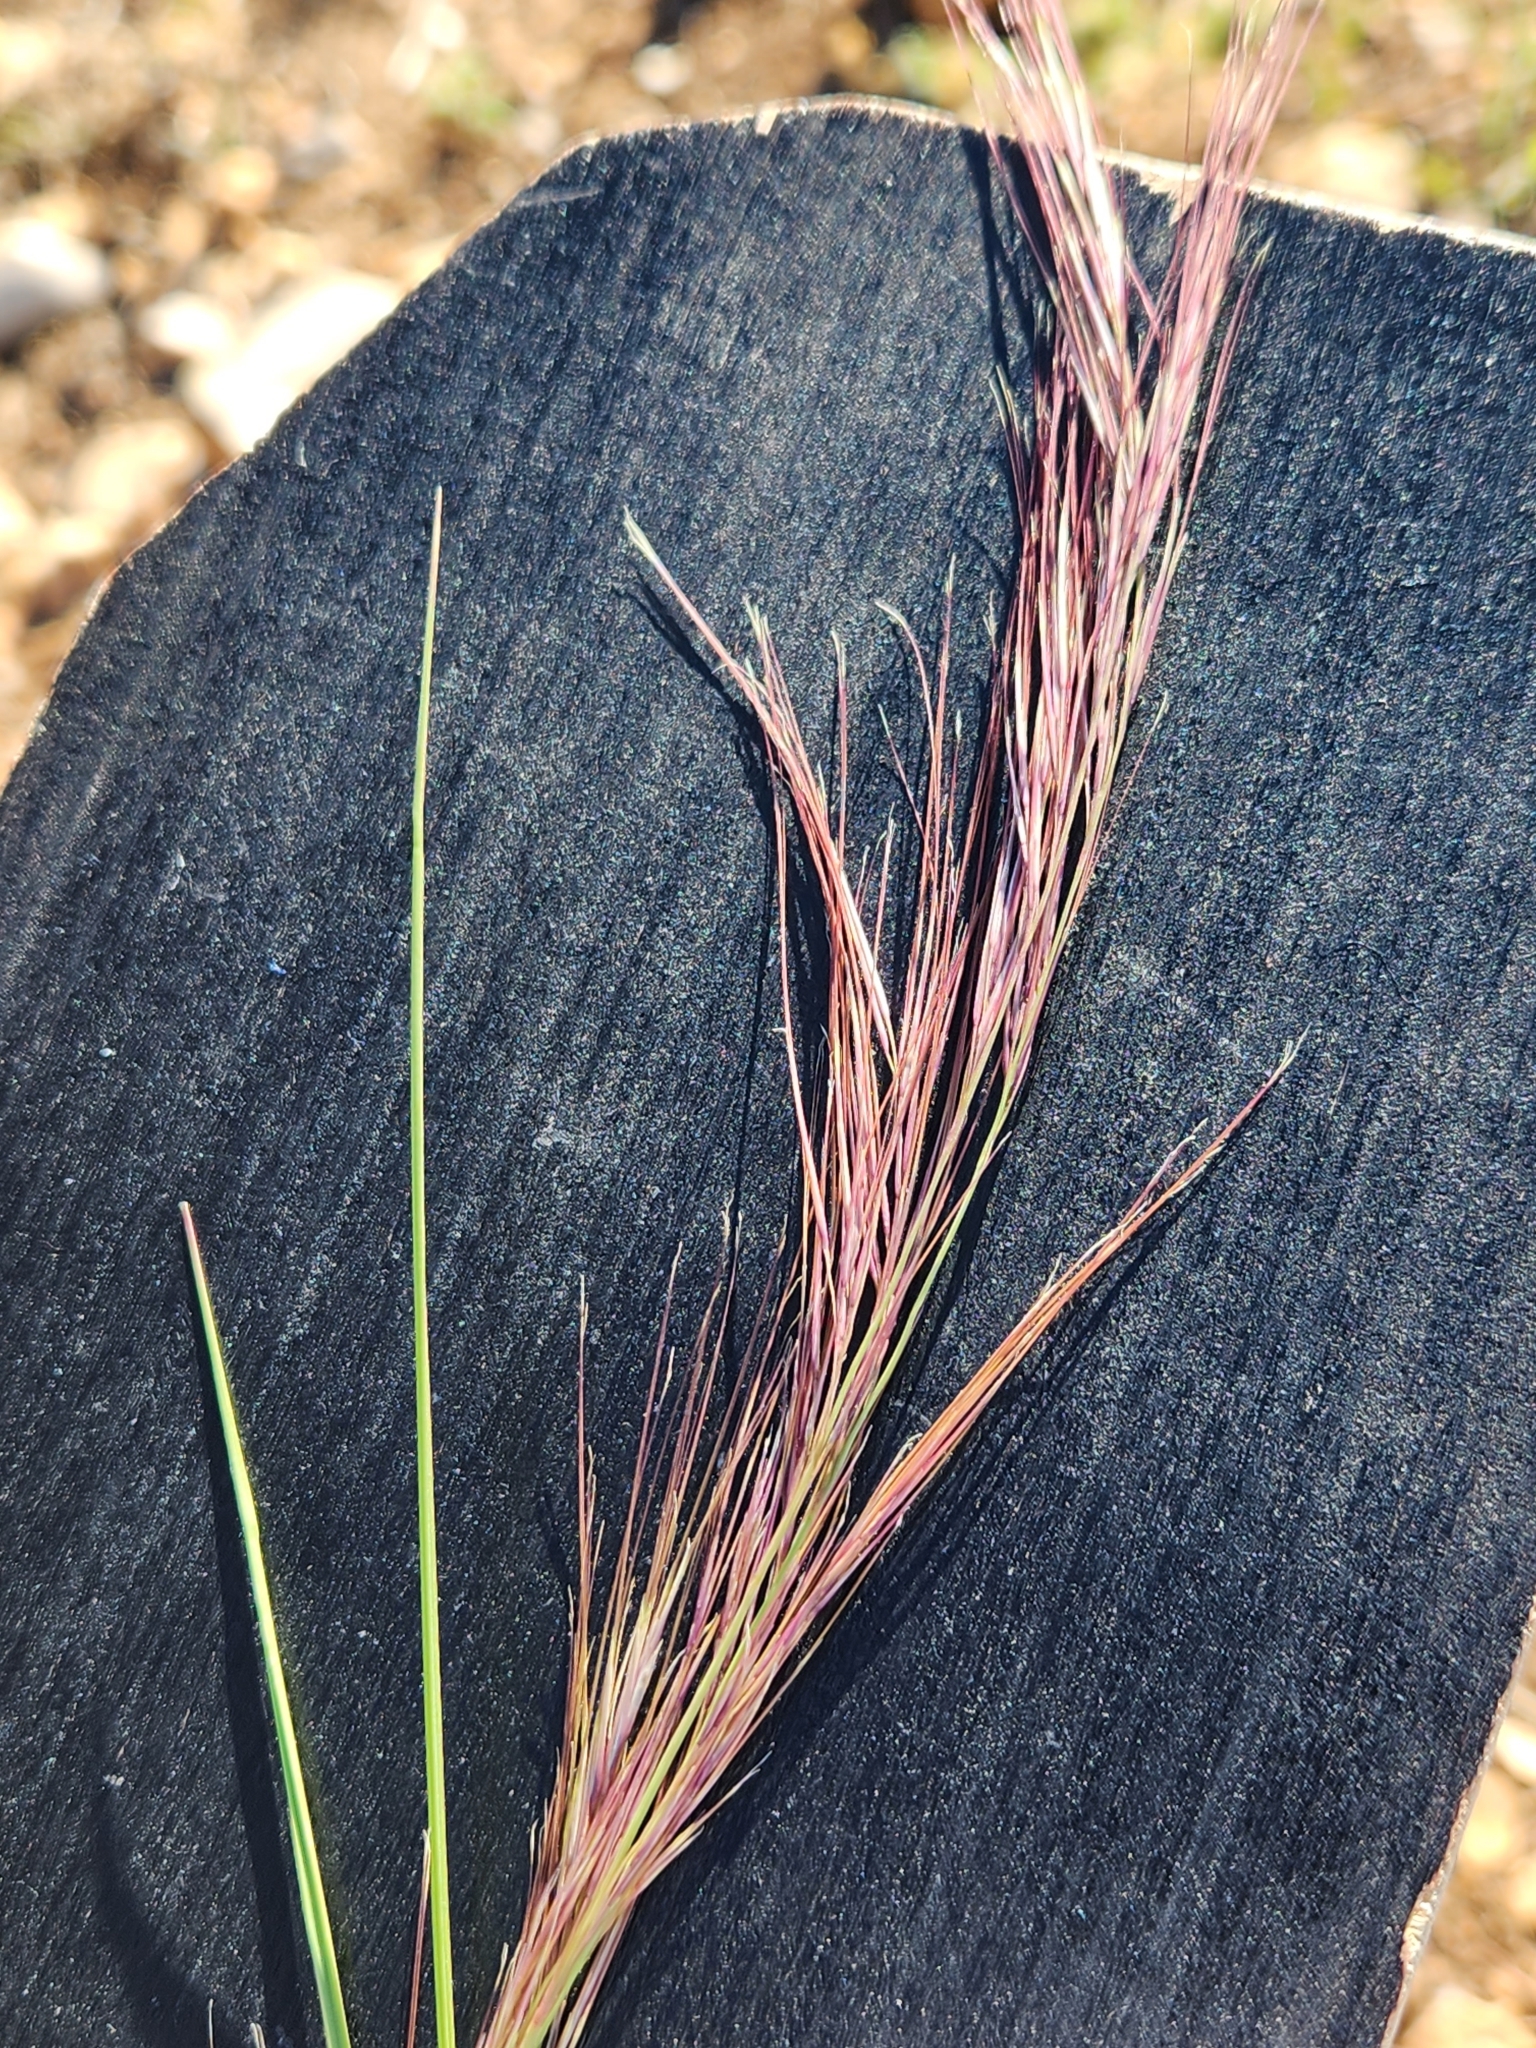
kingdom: Plantae
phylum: Tracheophyta
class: Liliopsida
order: Poales
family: Poaceae
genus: Aristida
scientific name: Aristida purpurea
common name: Purple threeawn
